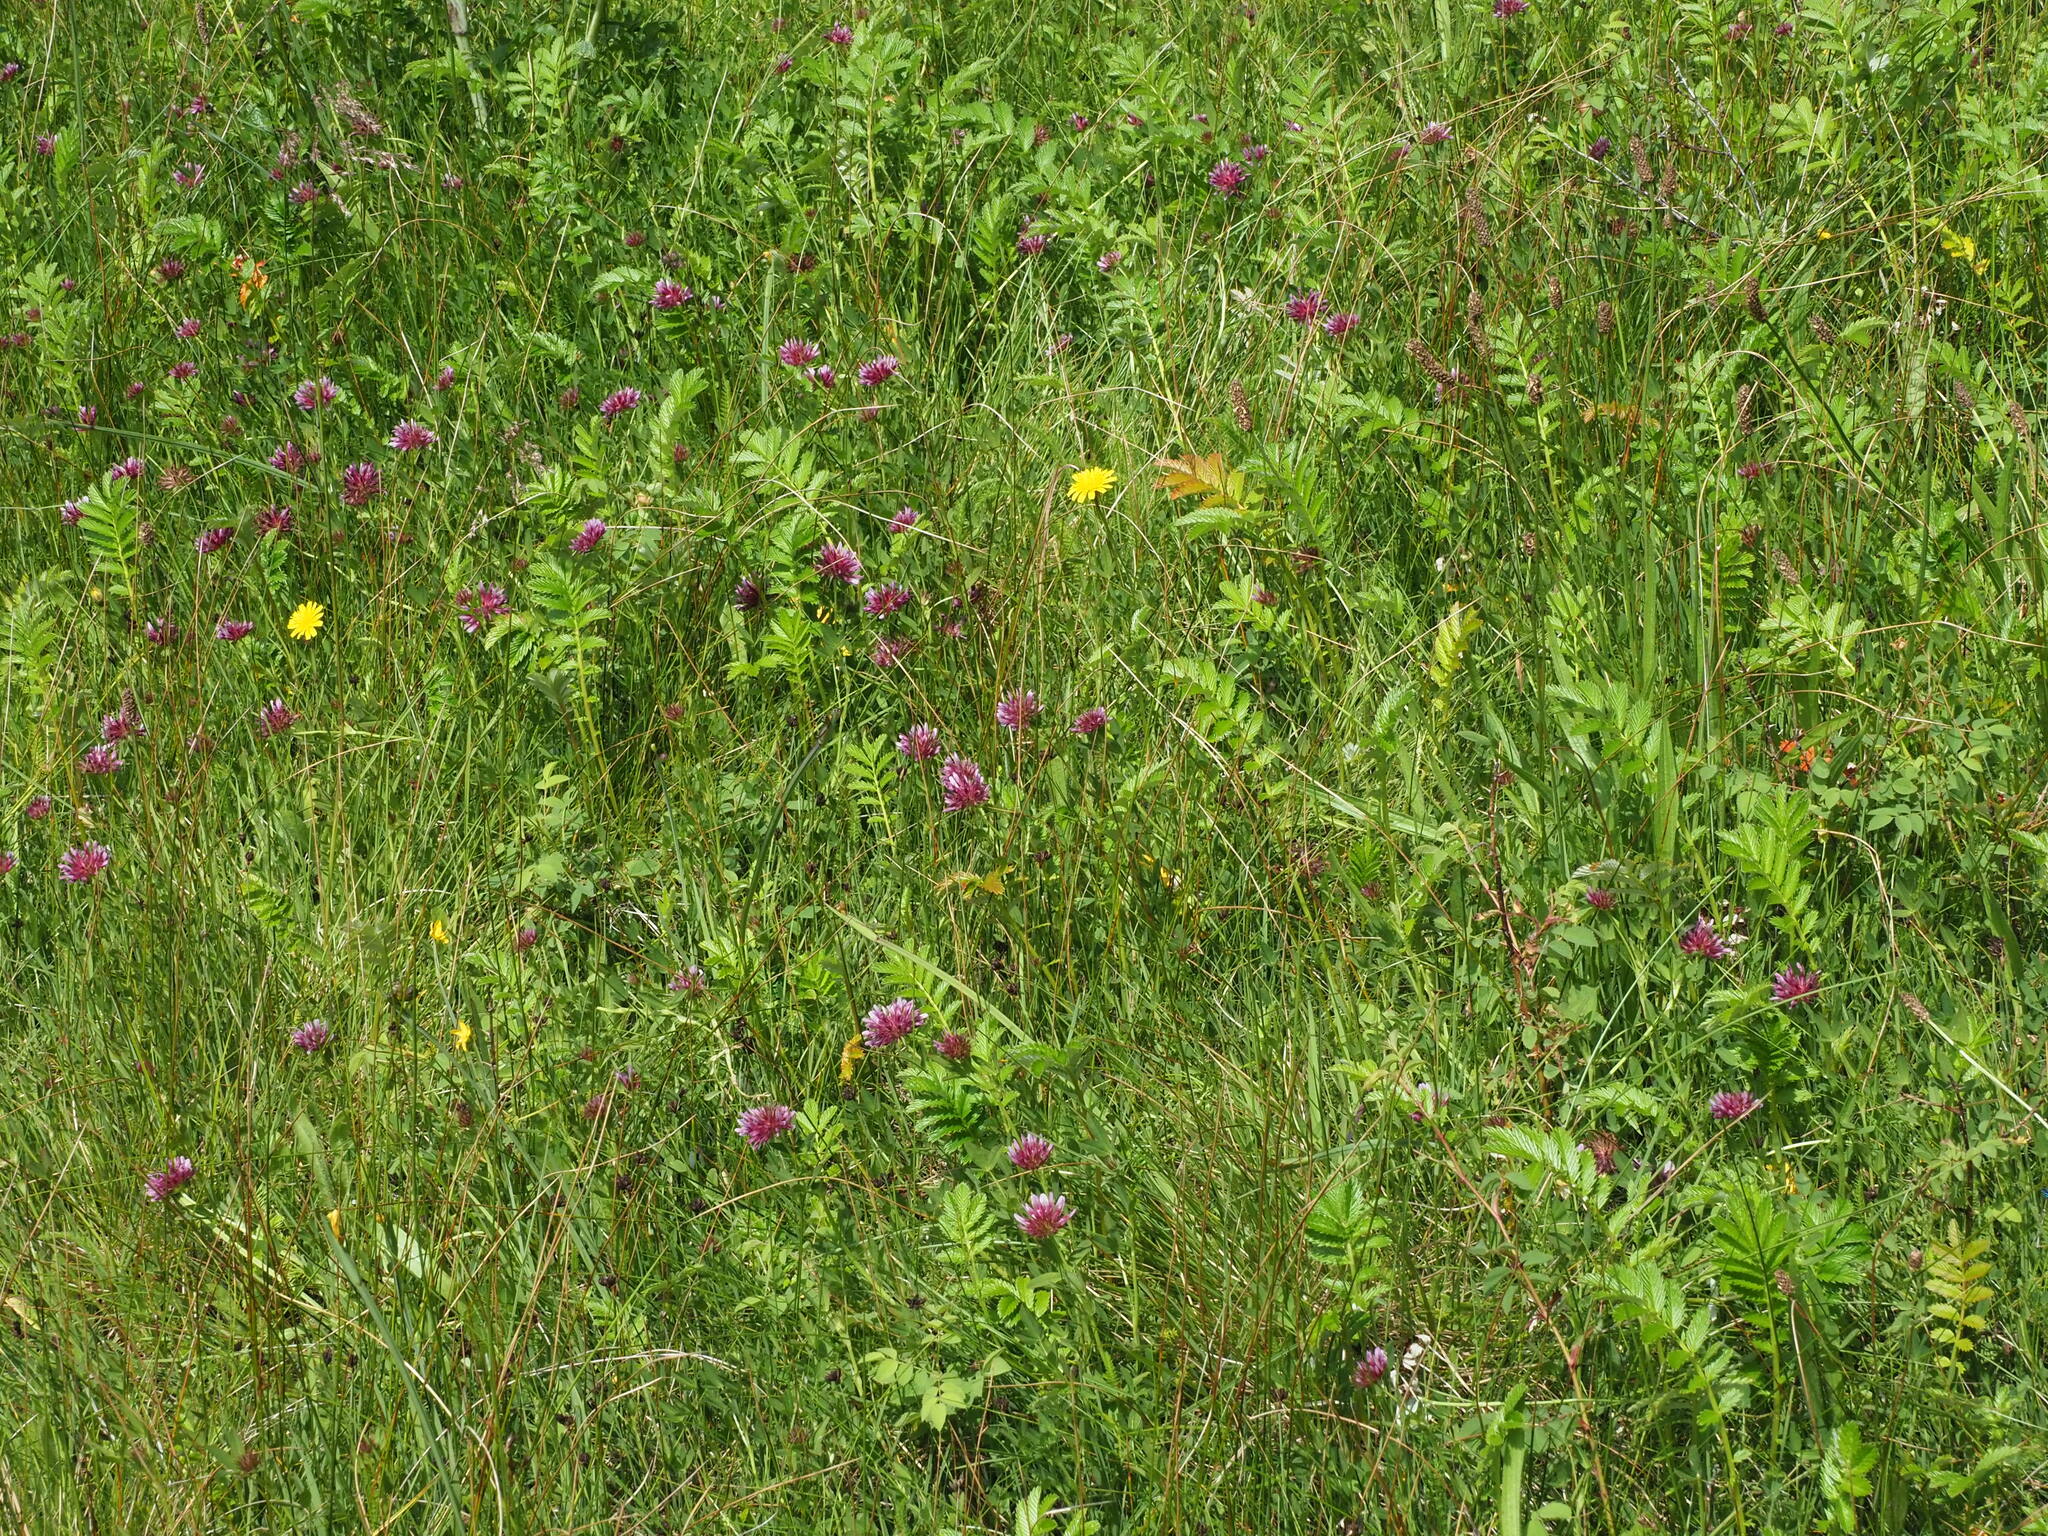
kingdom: Plantae
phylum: Tracheophyta
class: Magnoliopsida
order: Fabales
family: Fabaceae
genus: Trifolium
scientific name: Trifolium wormskioldii
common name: Springbank clover
